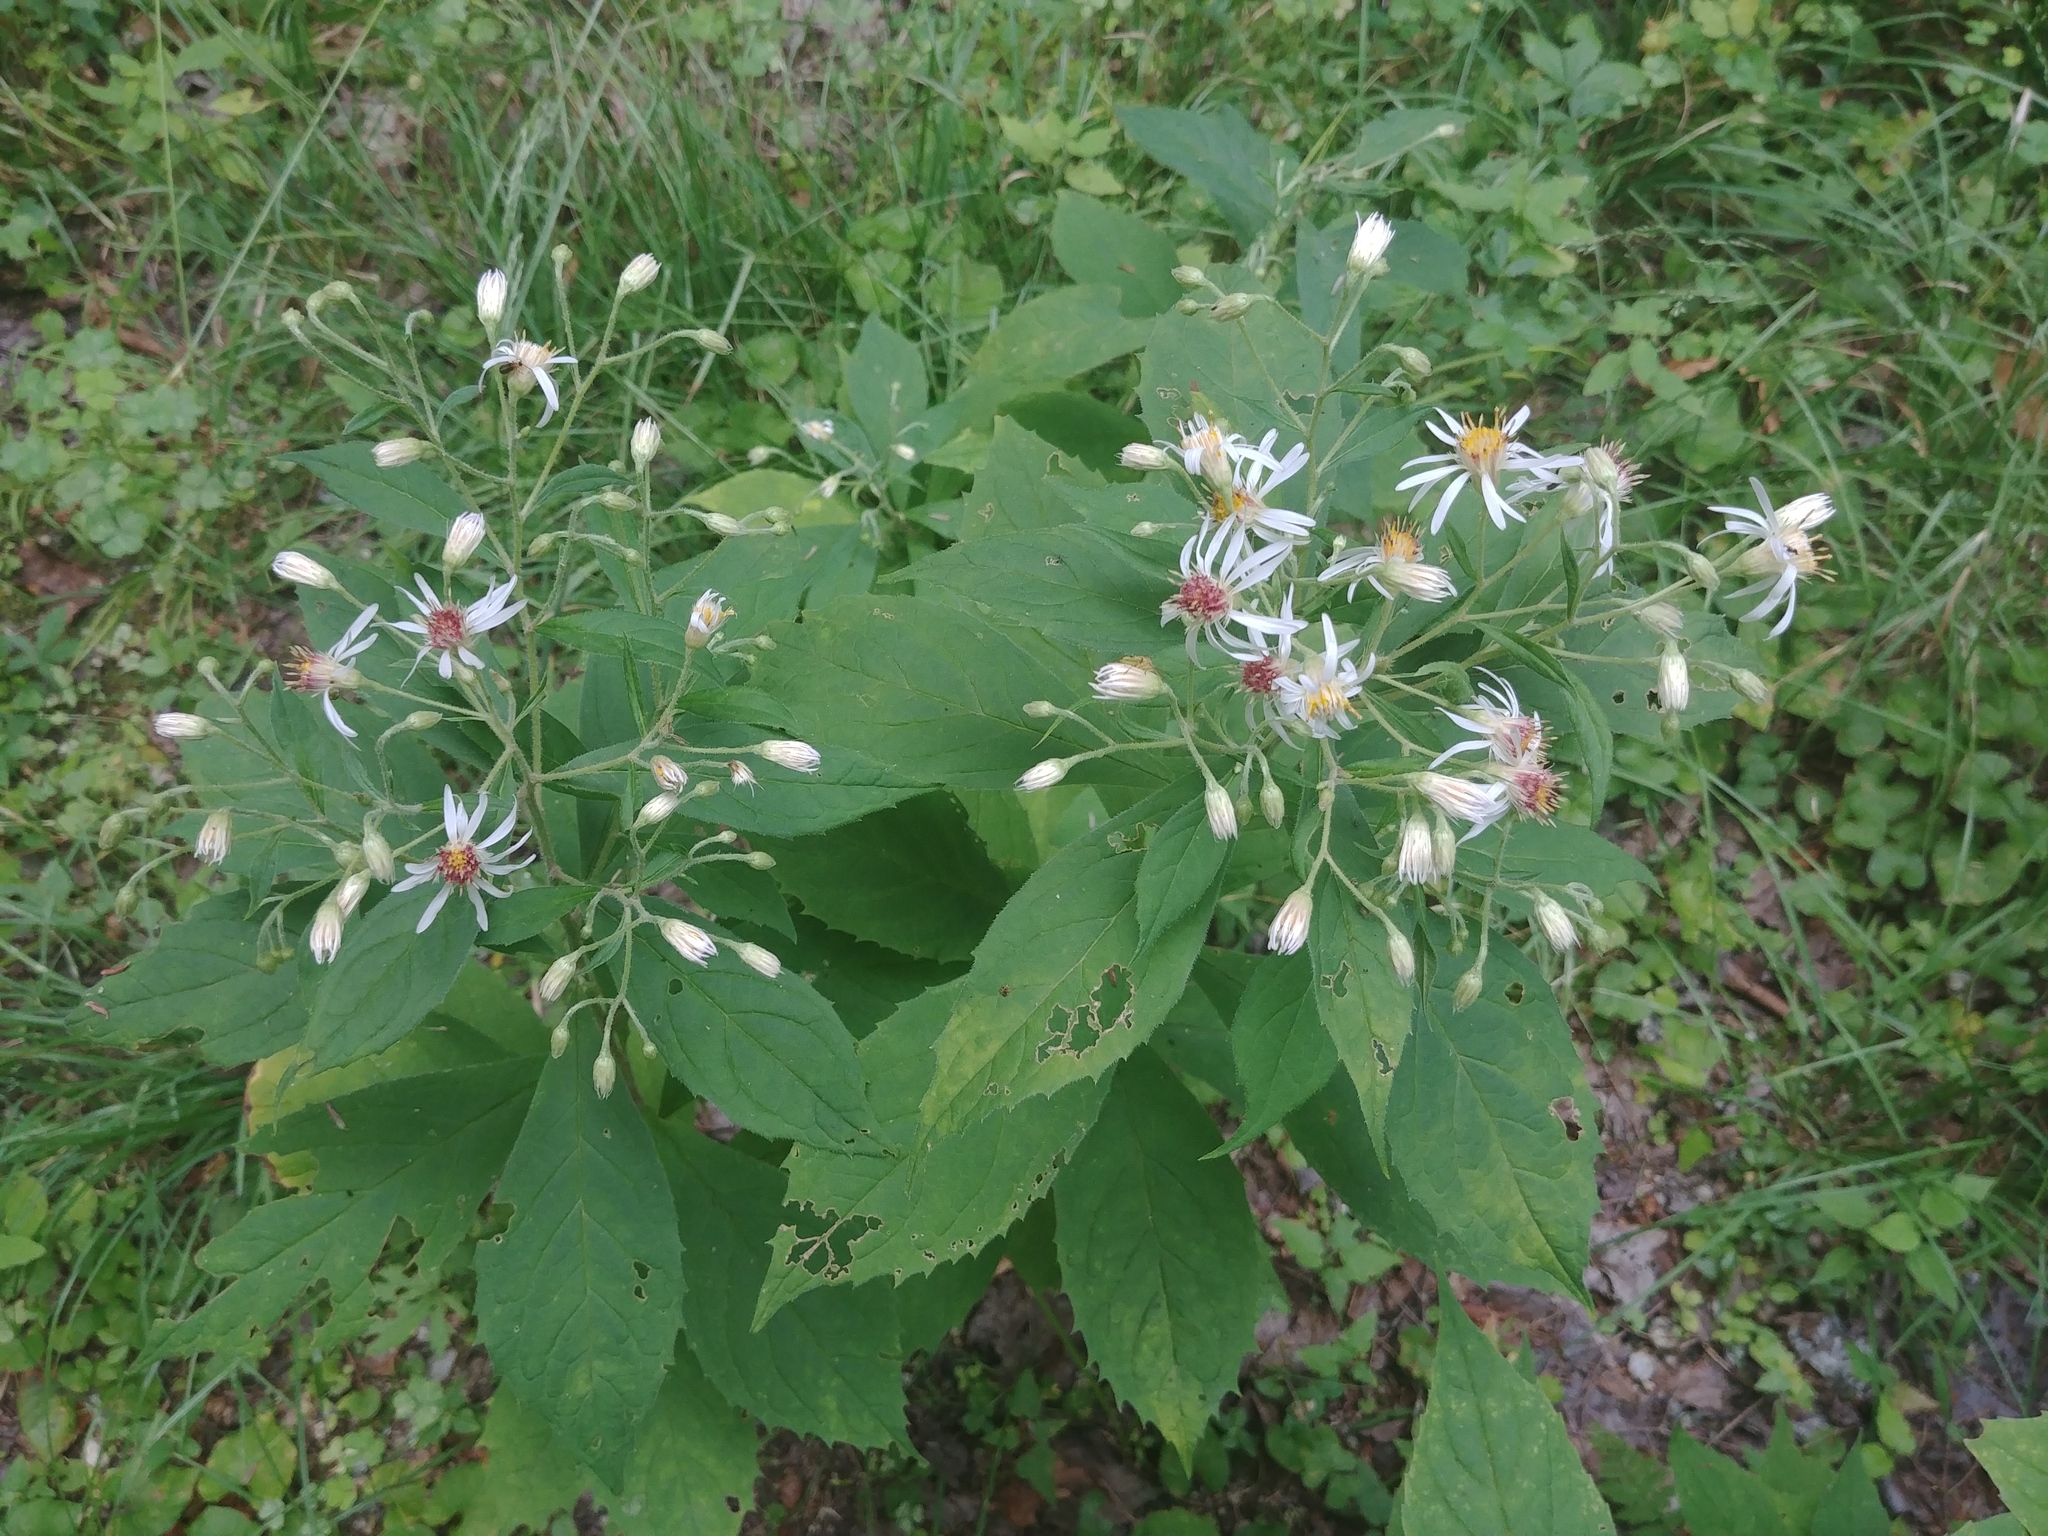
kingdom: Plantae
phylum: Tracheophyta
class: Magnoliopsida
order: Asterales
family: Asteraceae
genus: Oclemena
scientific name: Oclemena acuminata
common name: Mountain aster
